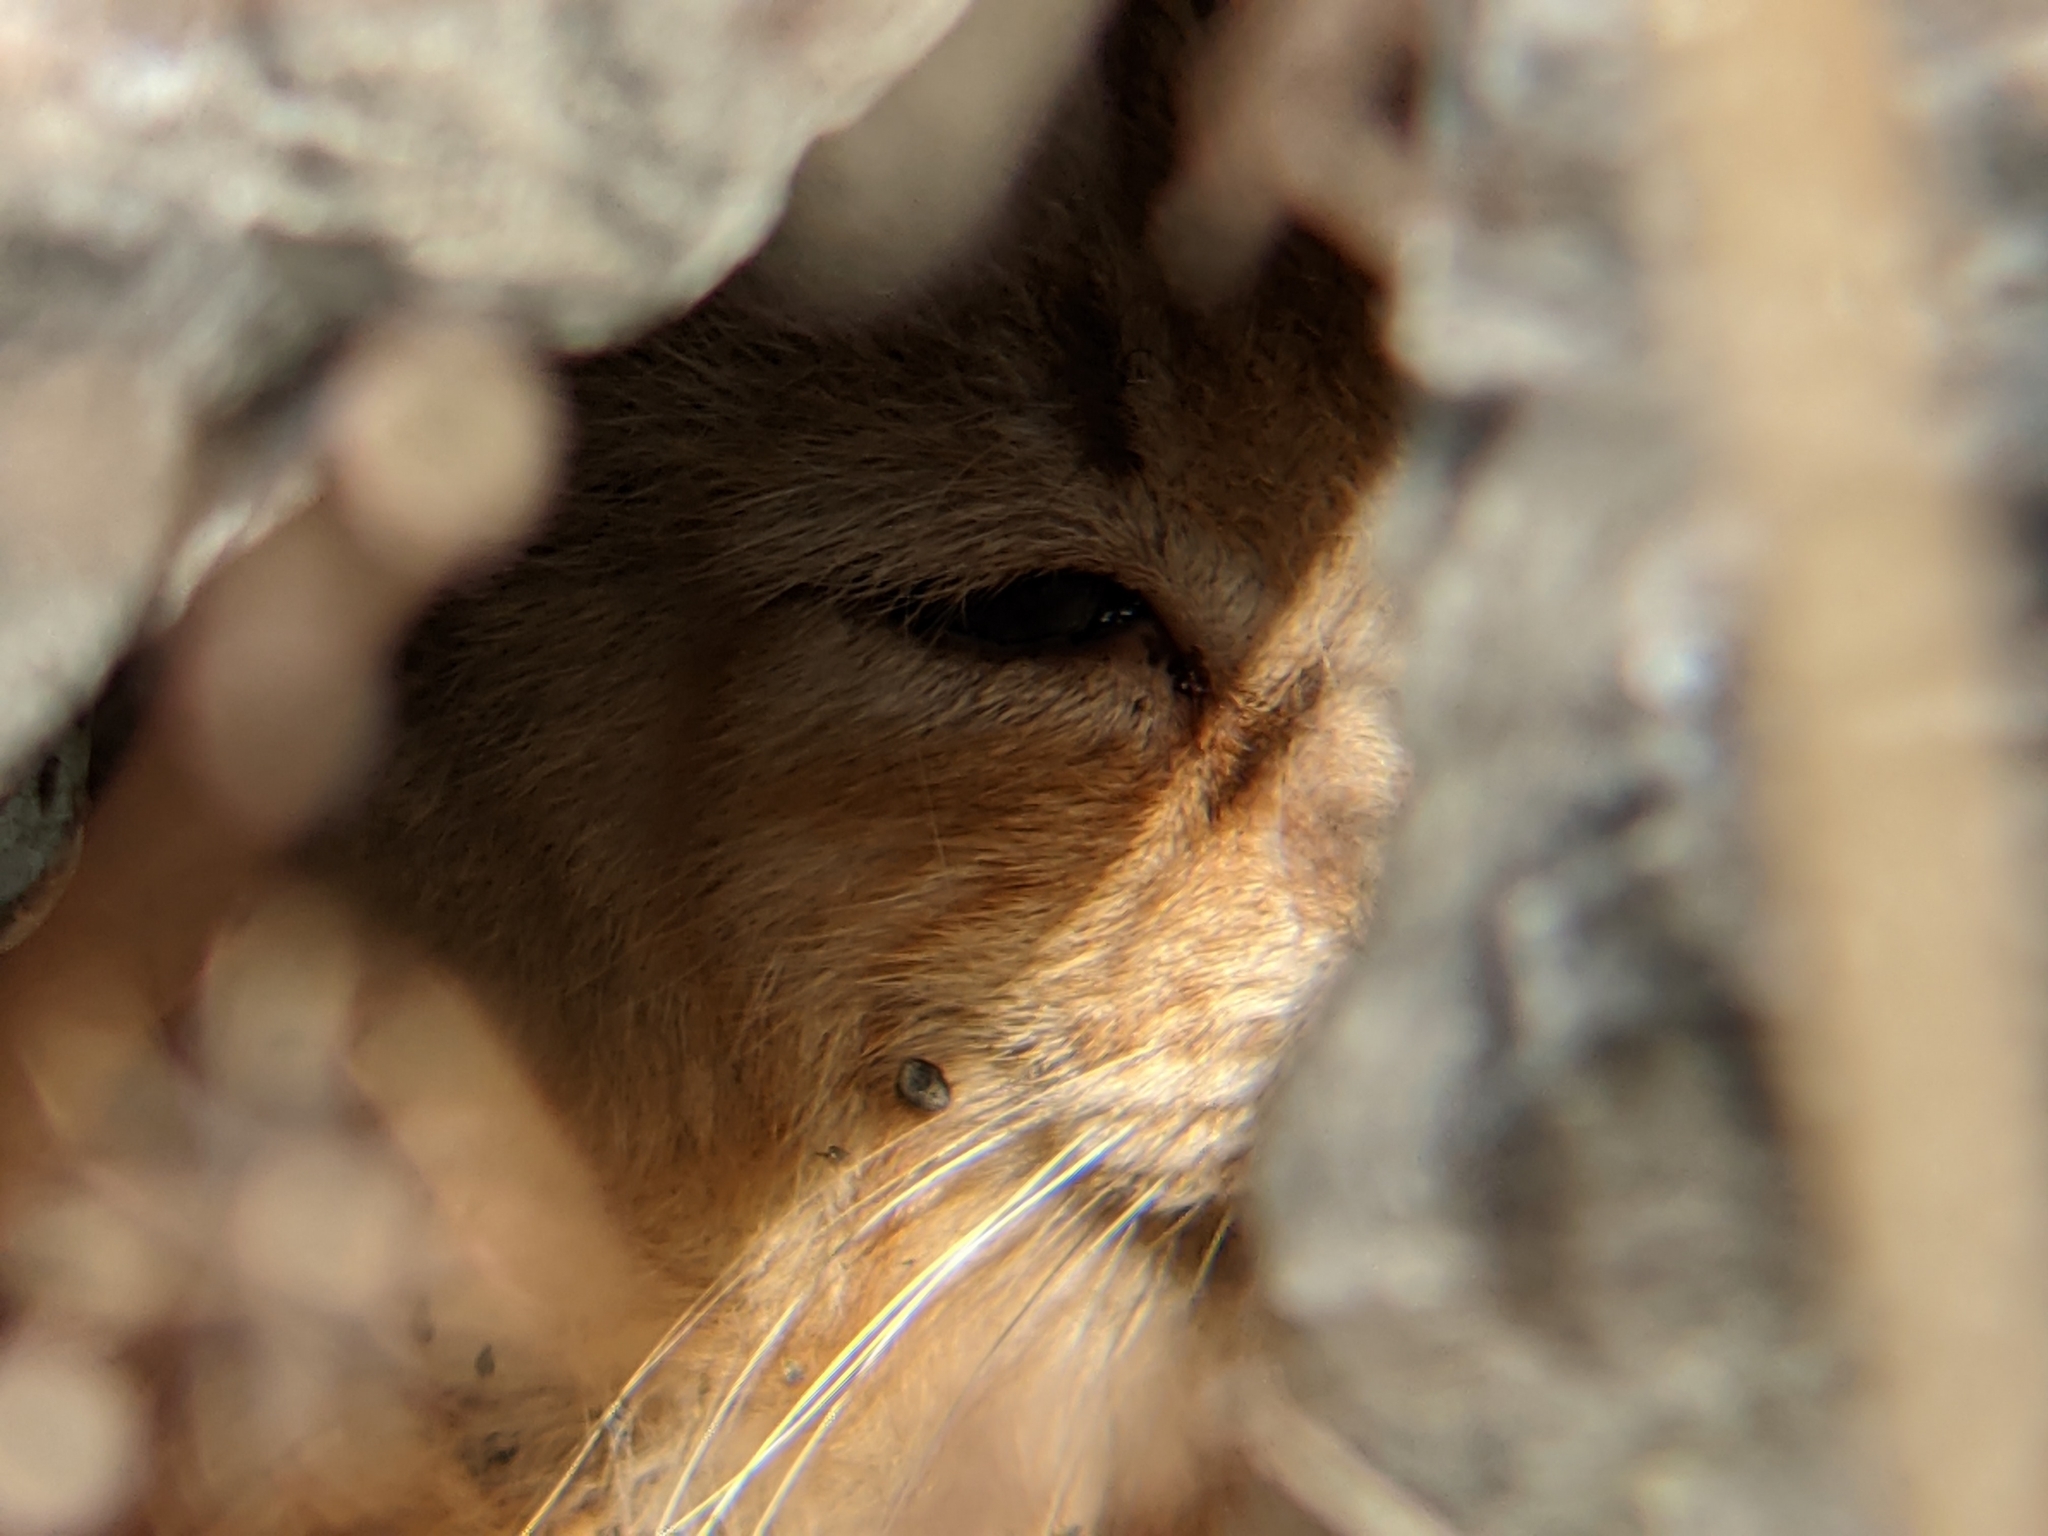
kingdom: Animalia
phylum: Chordata
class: Mammalia
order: Carnivora
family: Felidae
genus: Felis
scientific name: Felis catus
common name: Domestic cat
